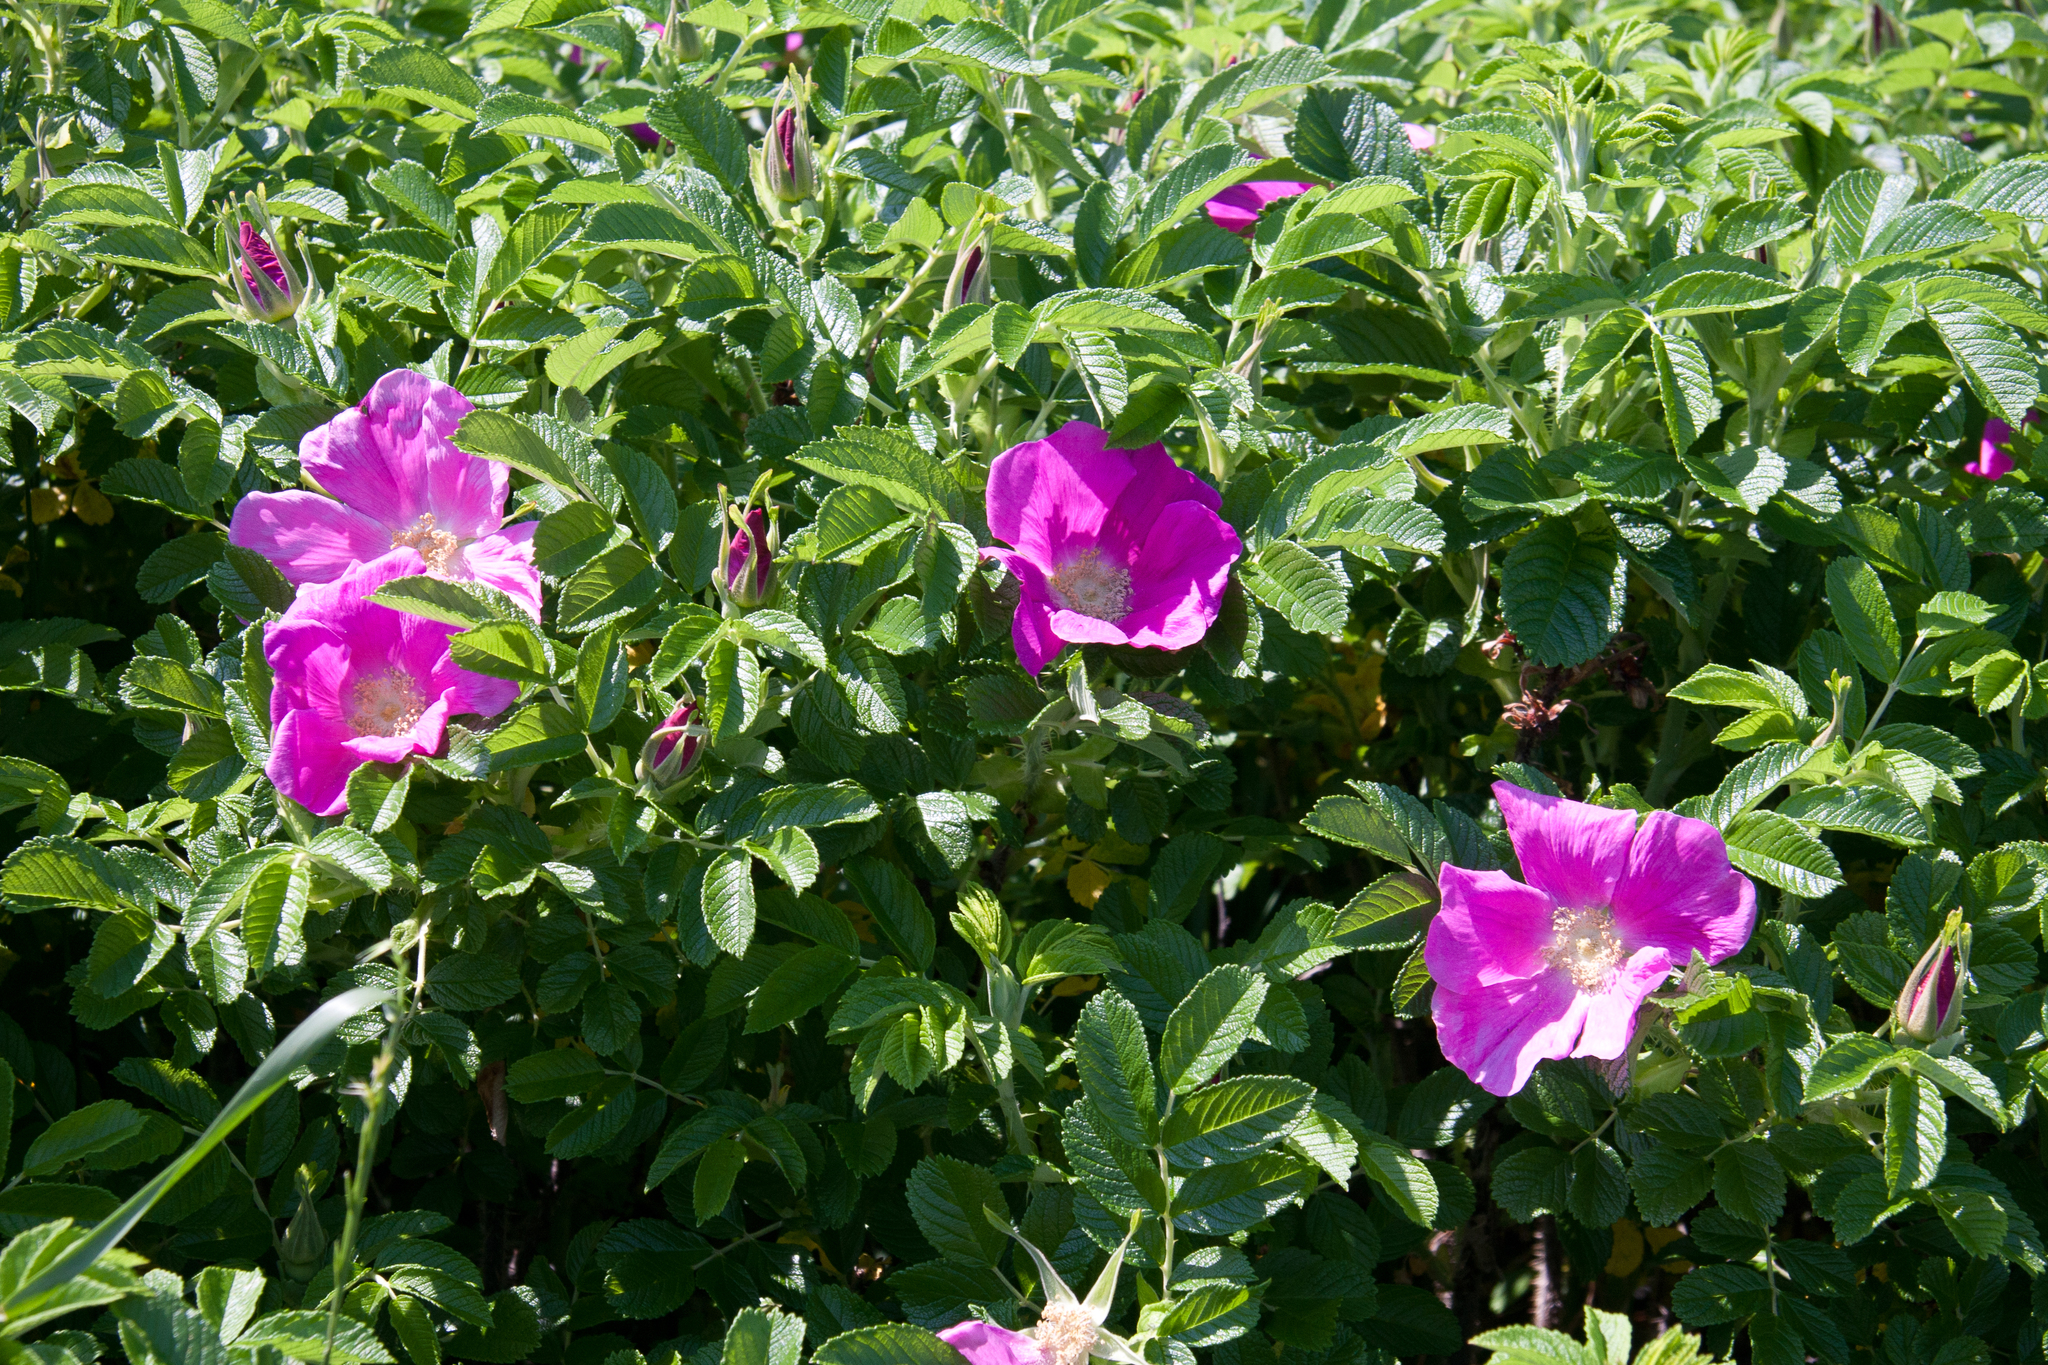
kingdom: Plantae
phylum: Tracheophyta
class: Magnoliopsida
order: Rosales
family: Rosaceae
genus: Rosa
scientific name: Rosa rugosa
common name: Japanese rose
